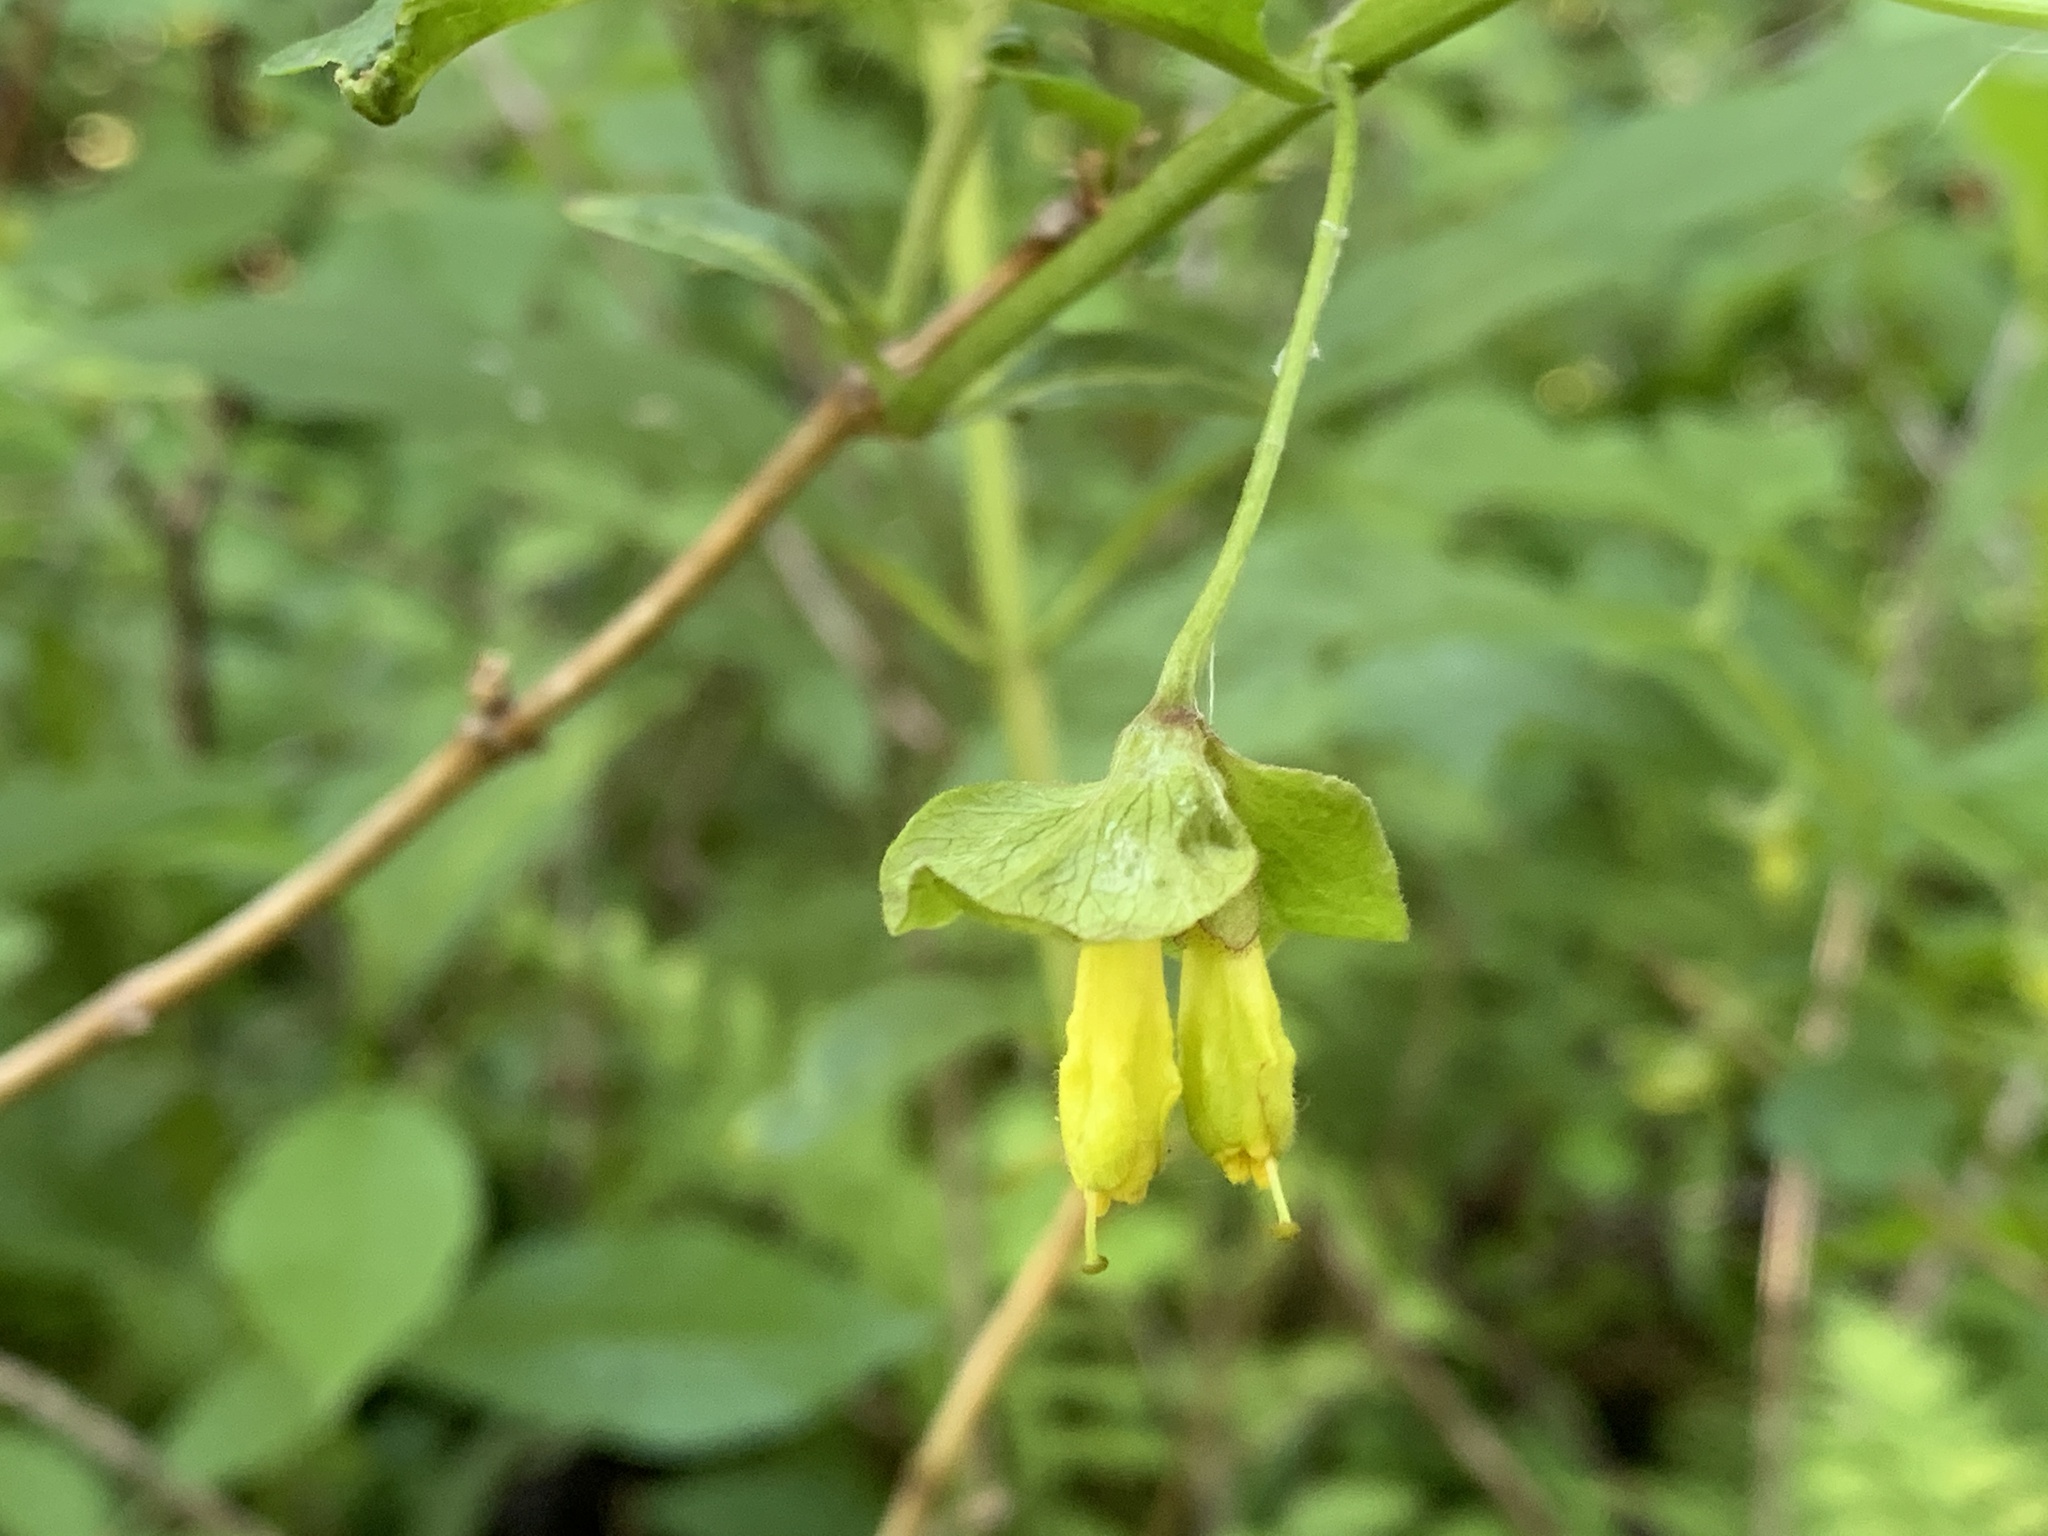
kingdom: Plantae
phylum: Tracheophyta
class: Magnoliopsida
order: Dipsacales
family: Caprifoliaceae
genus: Lonicera
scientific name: Lonicera involucrata
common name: Californian honeysuckle
